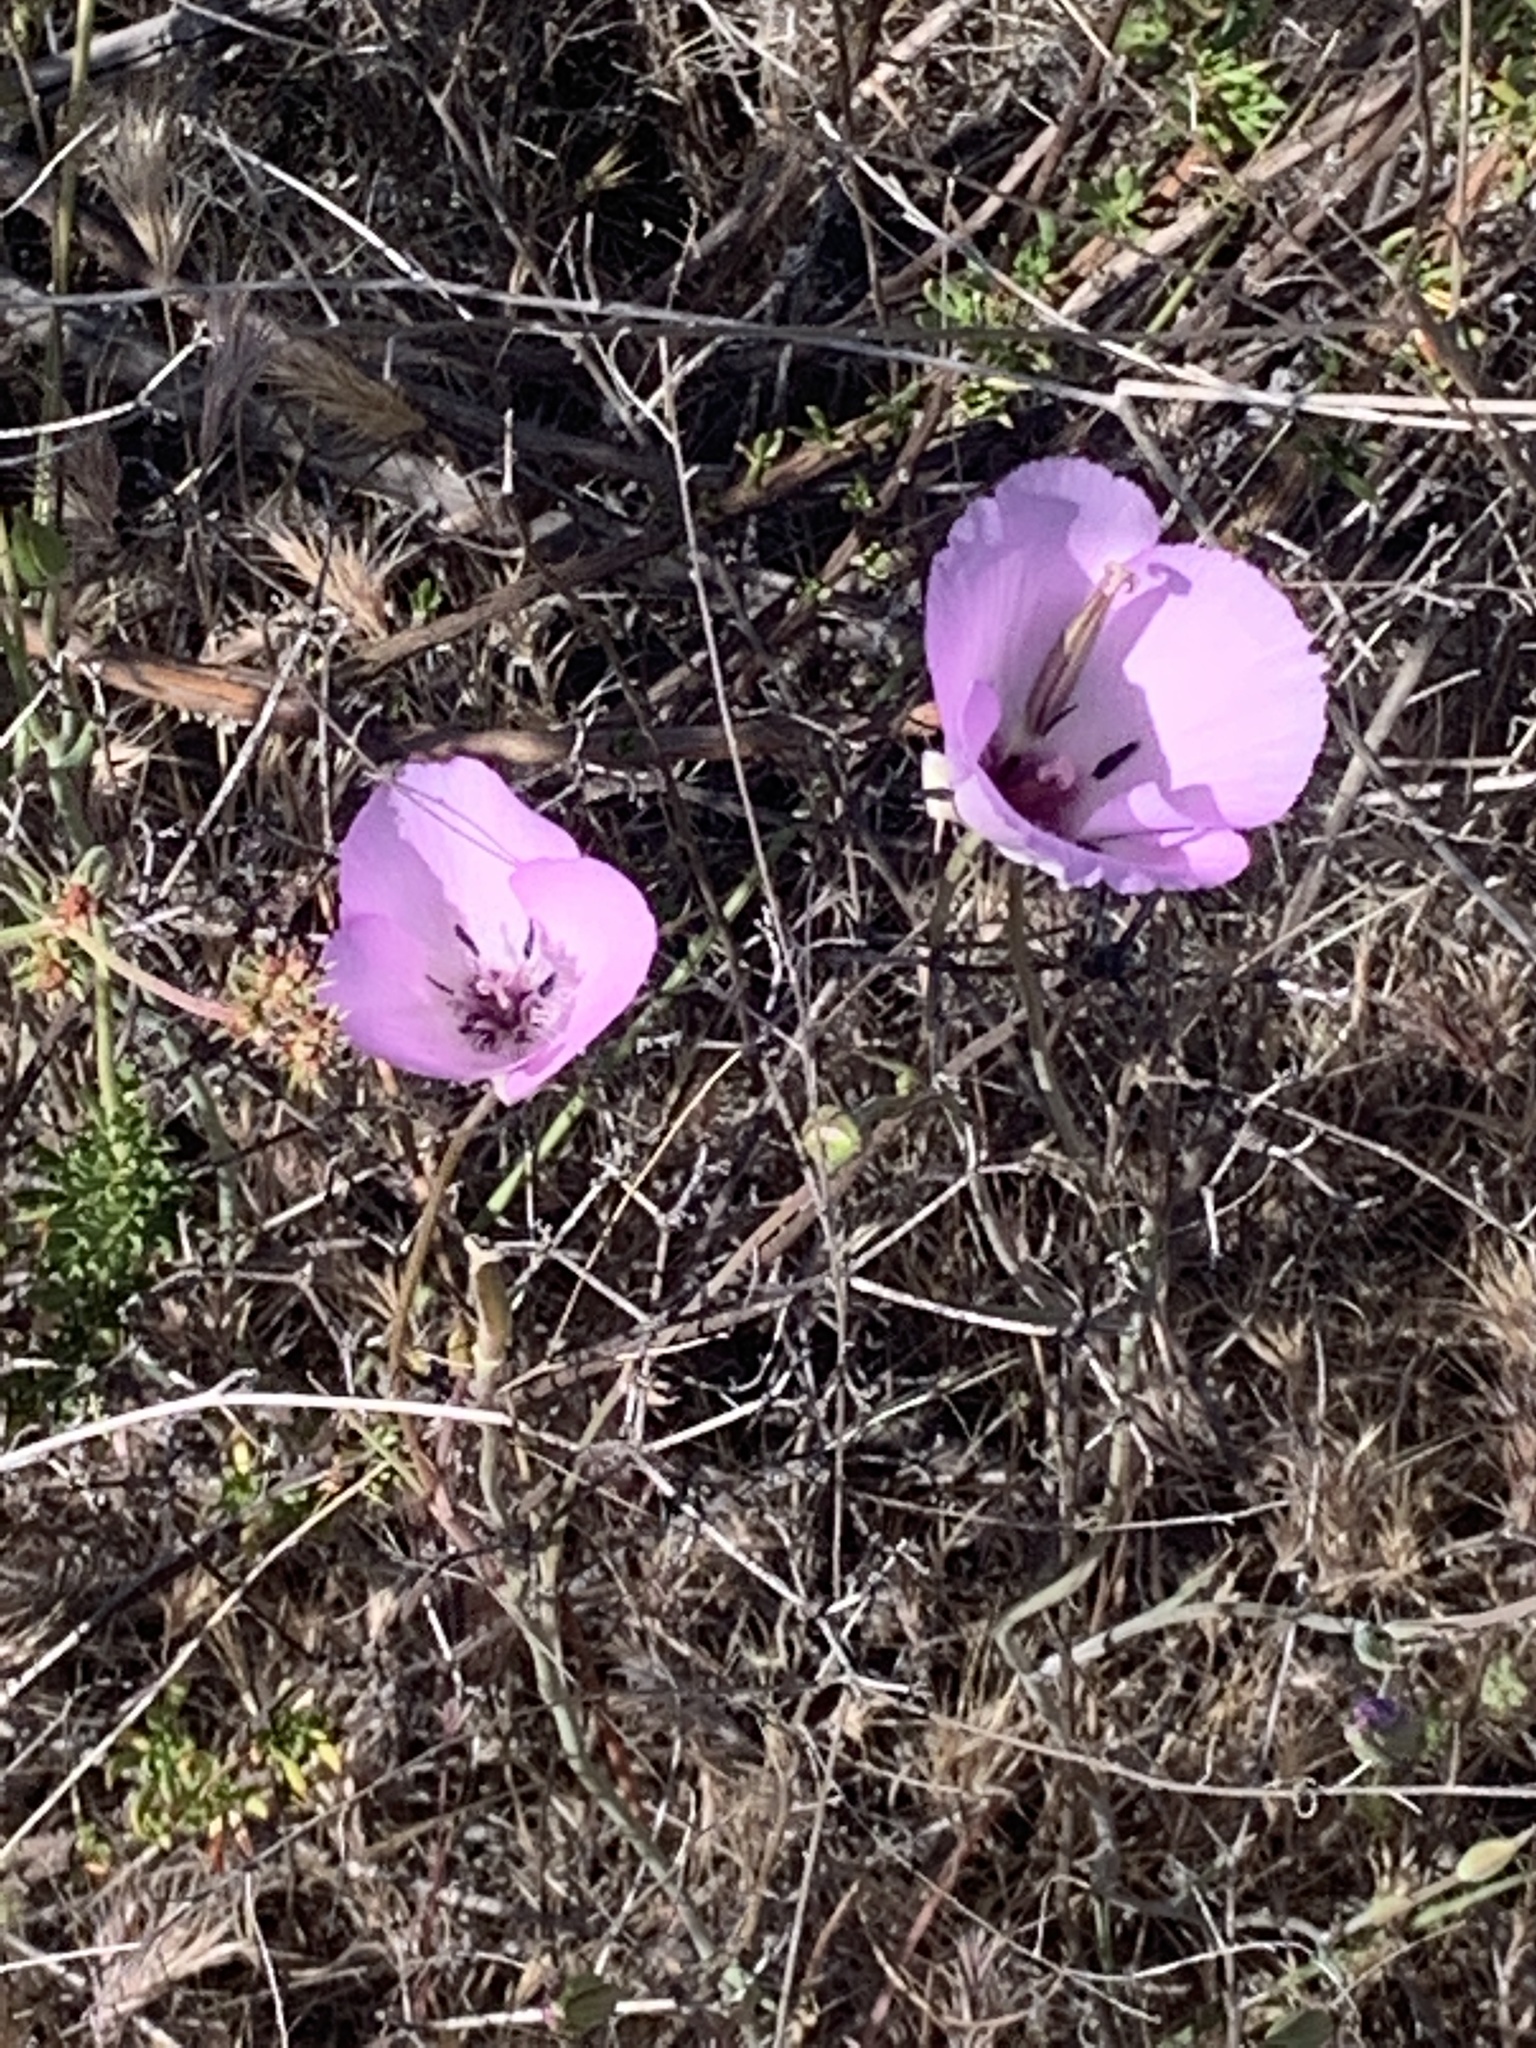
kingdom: Plantae
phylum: Tracheophyta
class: Liliopsida
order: Liliales
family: Liliaceae
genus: Calochortus
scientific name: Calochortus splendens
